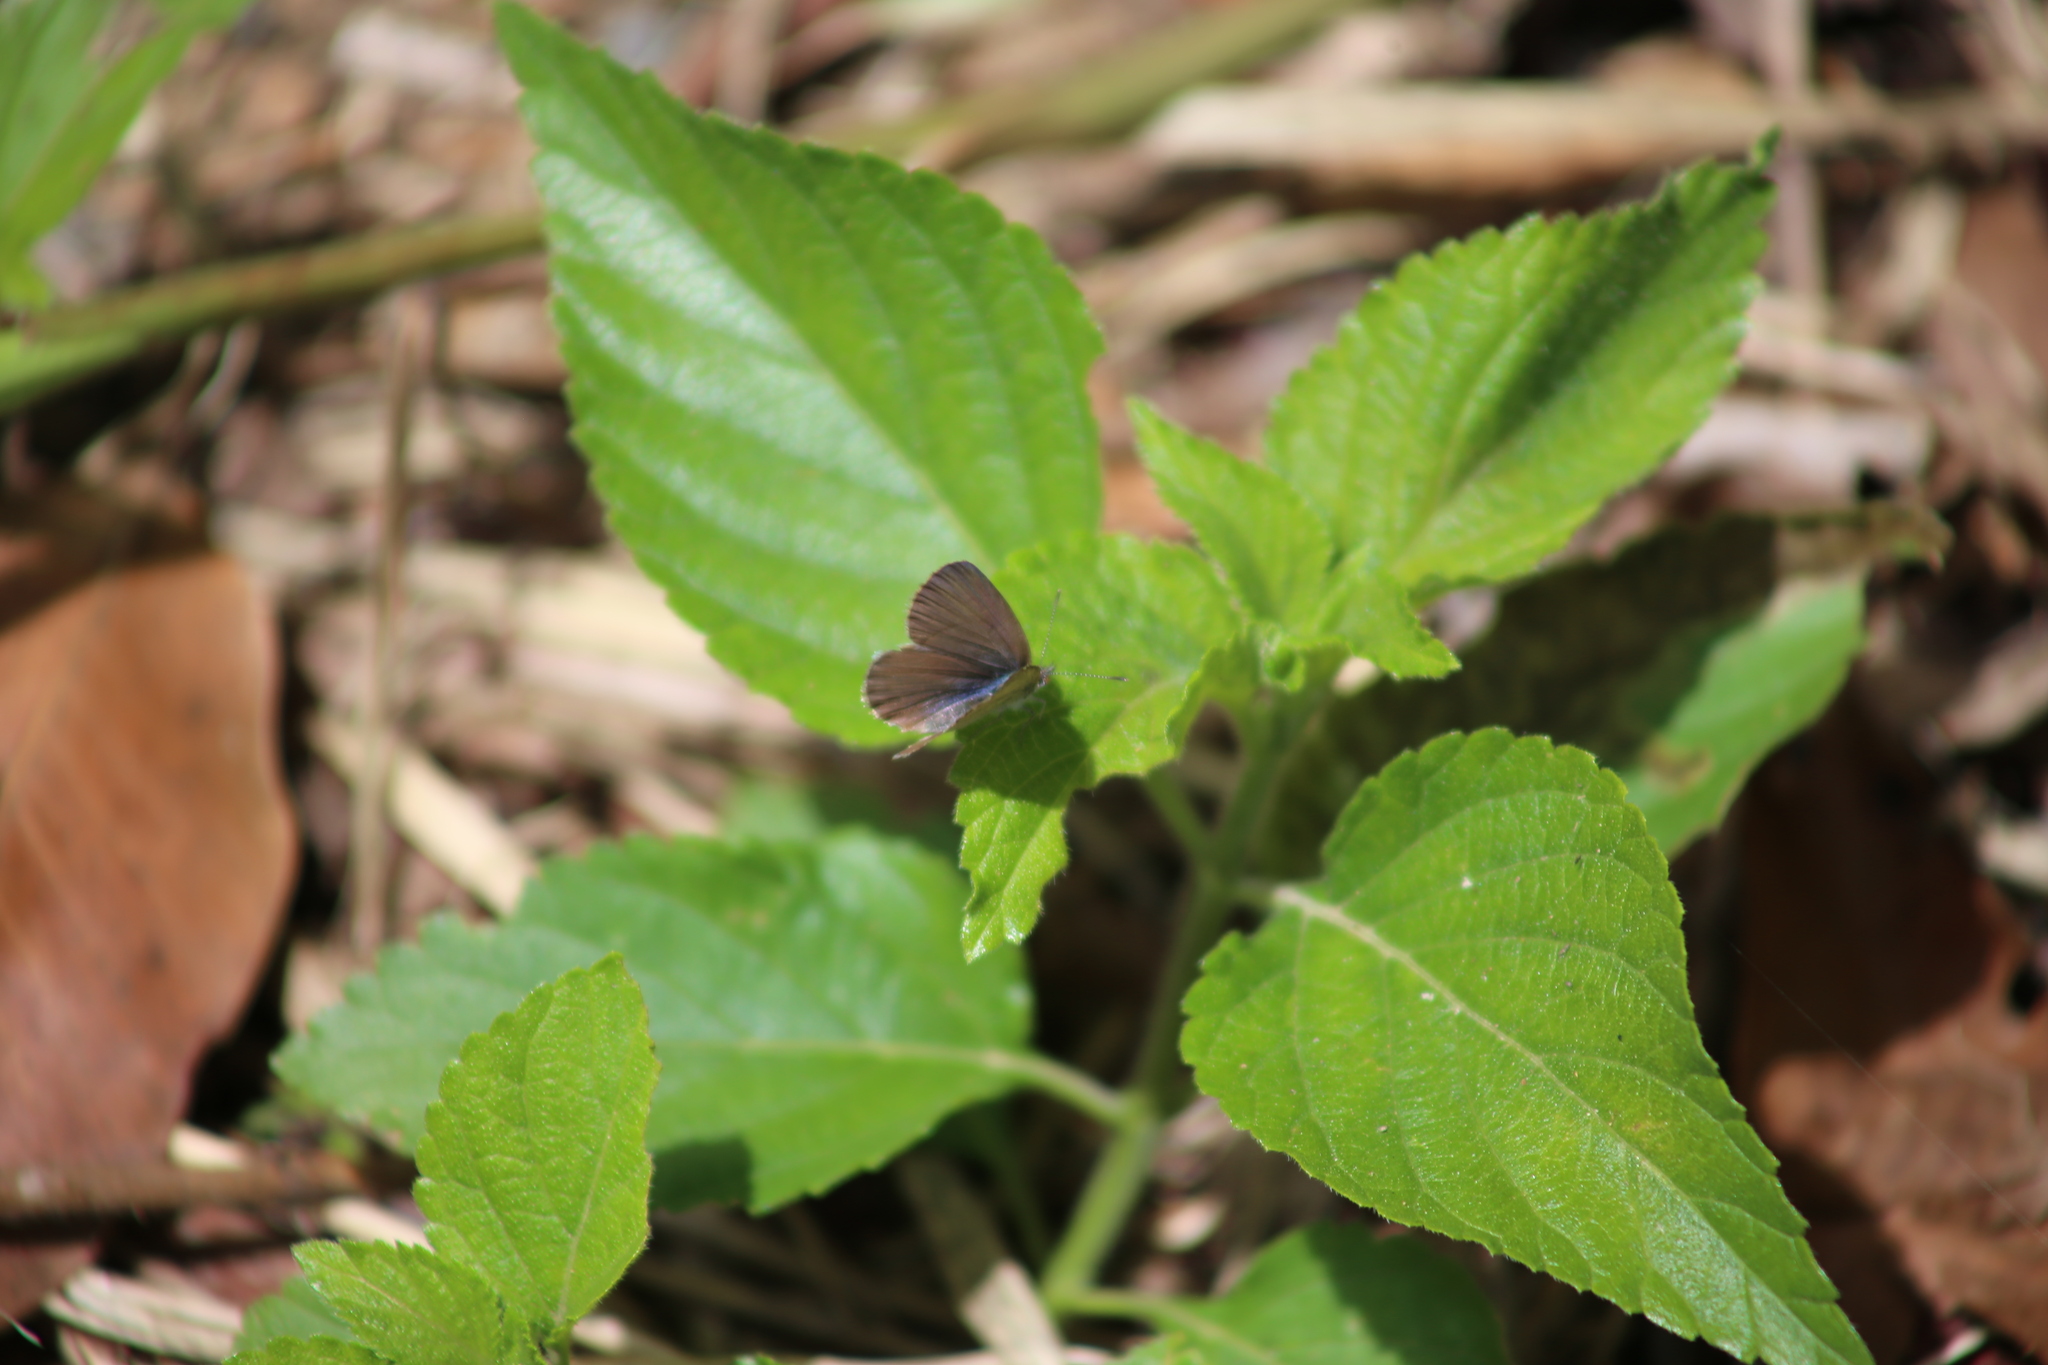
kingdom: Animalia
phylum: Arthropoda
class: Insecta
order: Lepidoptera
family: Lycaenidae
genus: Zizina
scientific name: Zizina labradus
